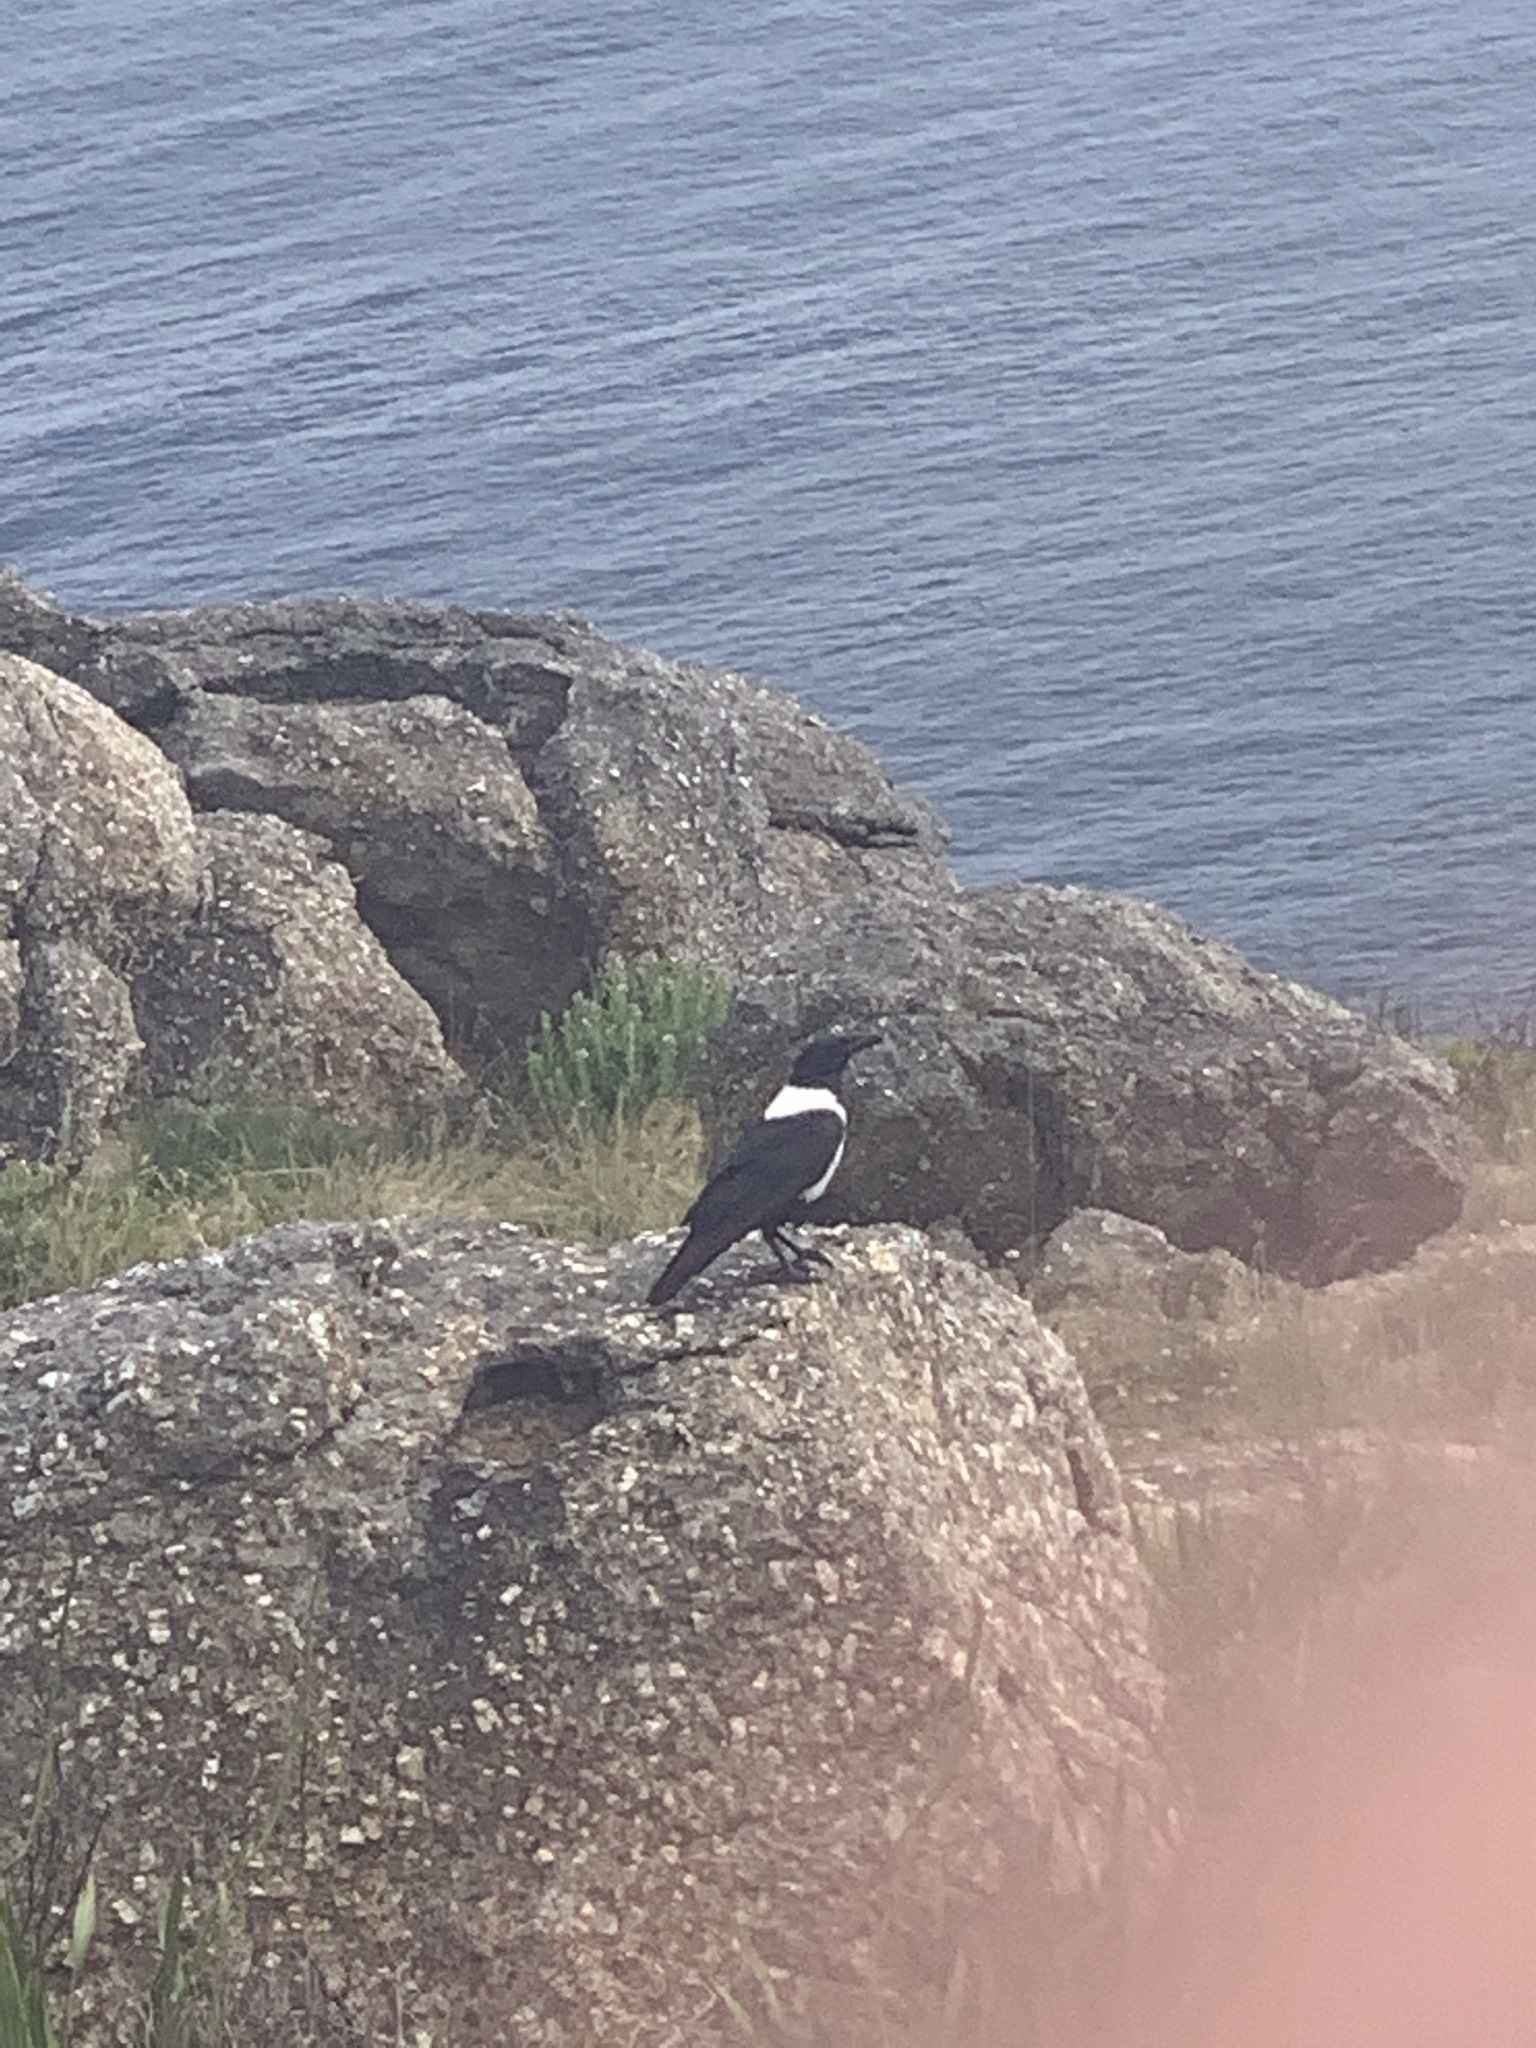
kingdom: Animalia
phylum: Chordata
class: Aves
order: Passeriformes
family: Corvidae
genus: Corvus
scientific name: Corvus albus
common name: Pied crow
